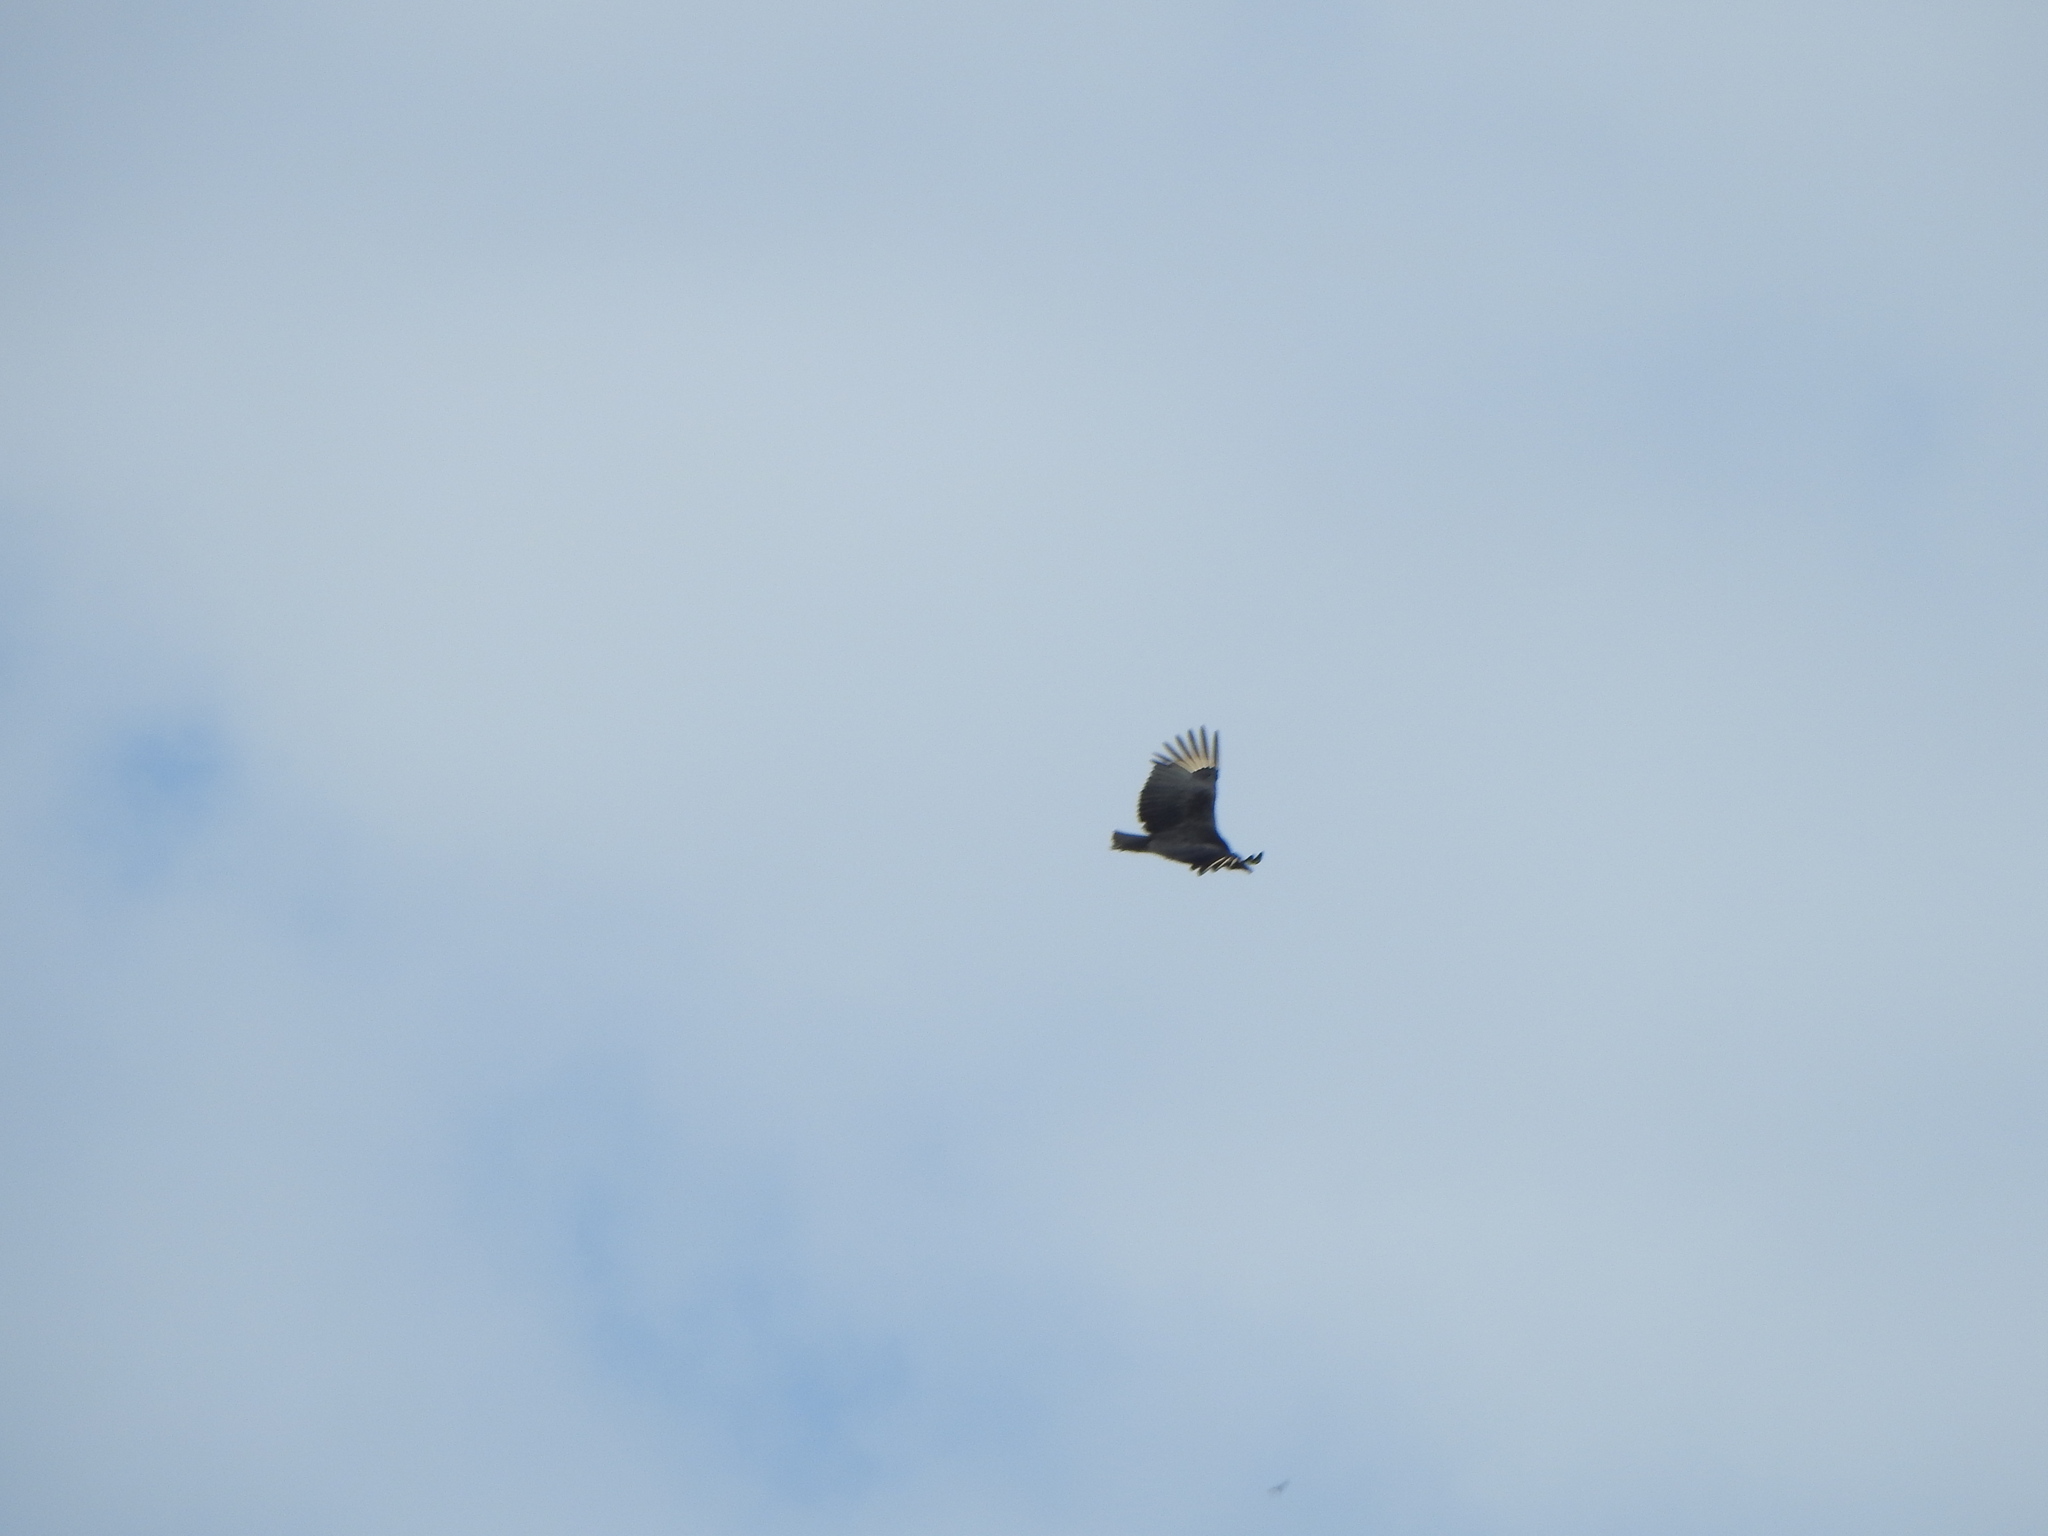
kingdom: Animalia
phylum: Chordata
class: Aves
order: Accipitriformes
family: Cathartidae
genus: Coragyps
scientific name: Coragyps atratus
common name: Black vulture
